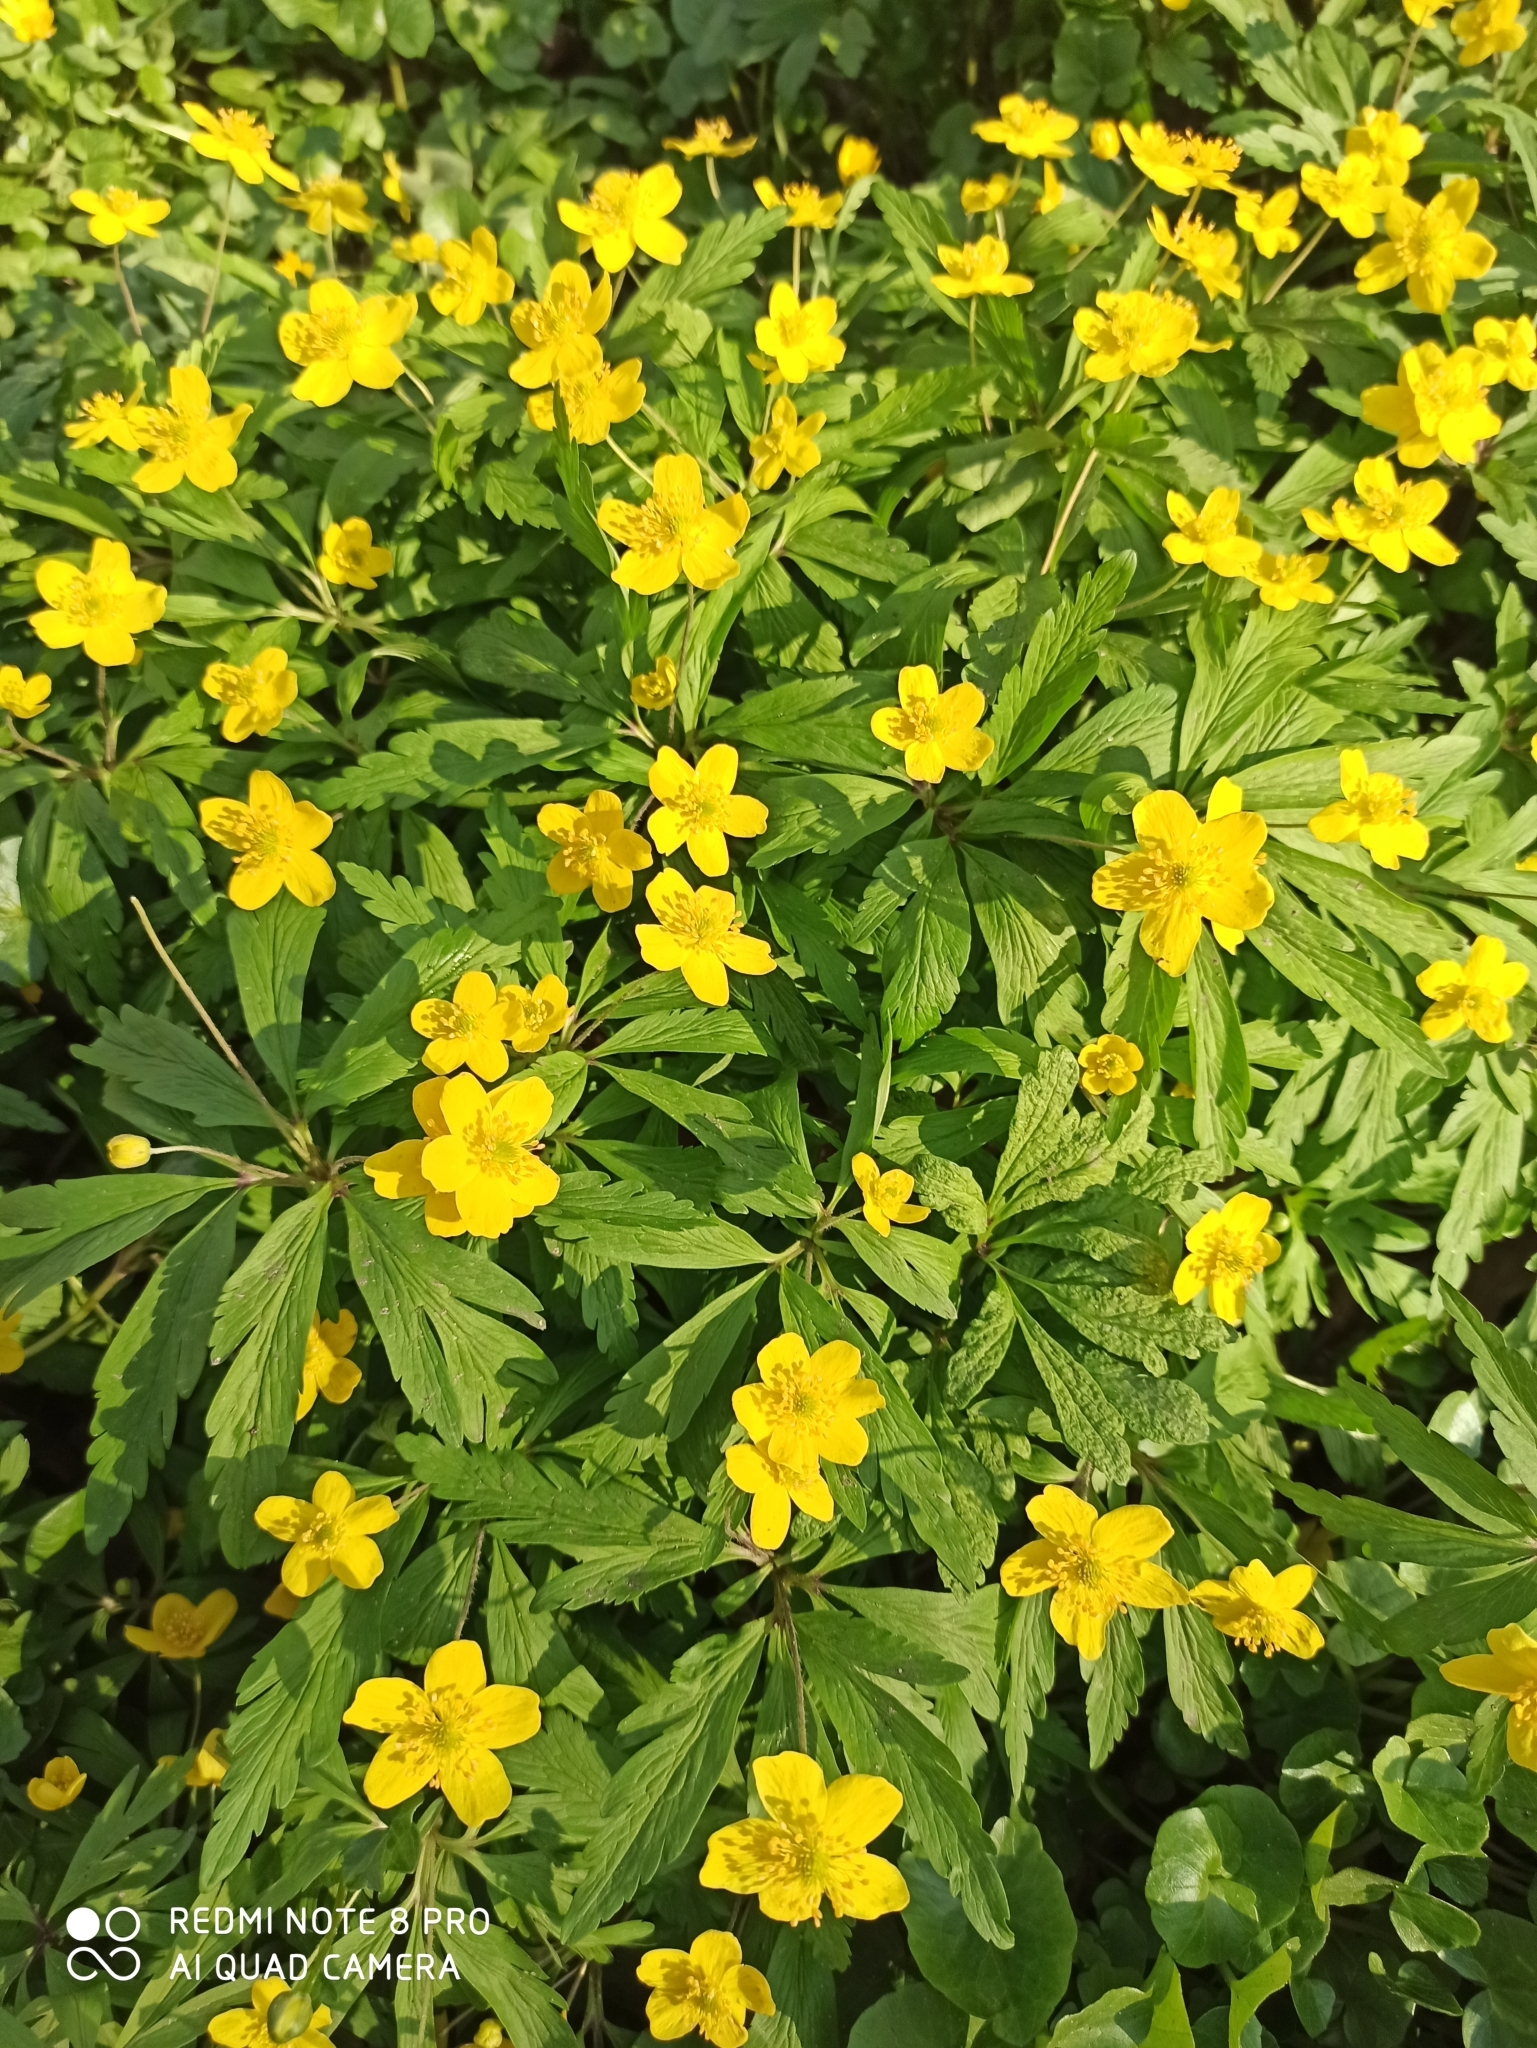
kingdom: Plantae
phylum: Tracheophyta
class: Magnoliopsida
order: Ranunculales
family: Ranunculaceae
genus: Anemone
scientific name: Anemone ranunculoides
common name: Yellow anemone
